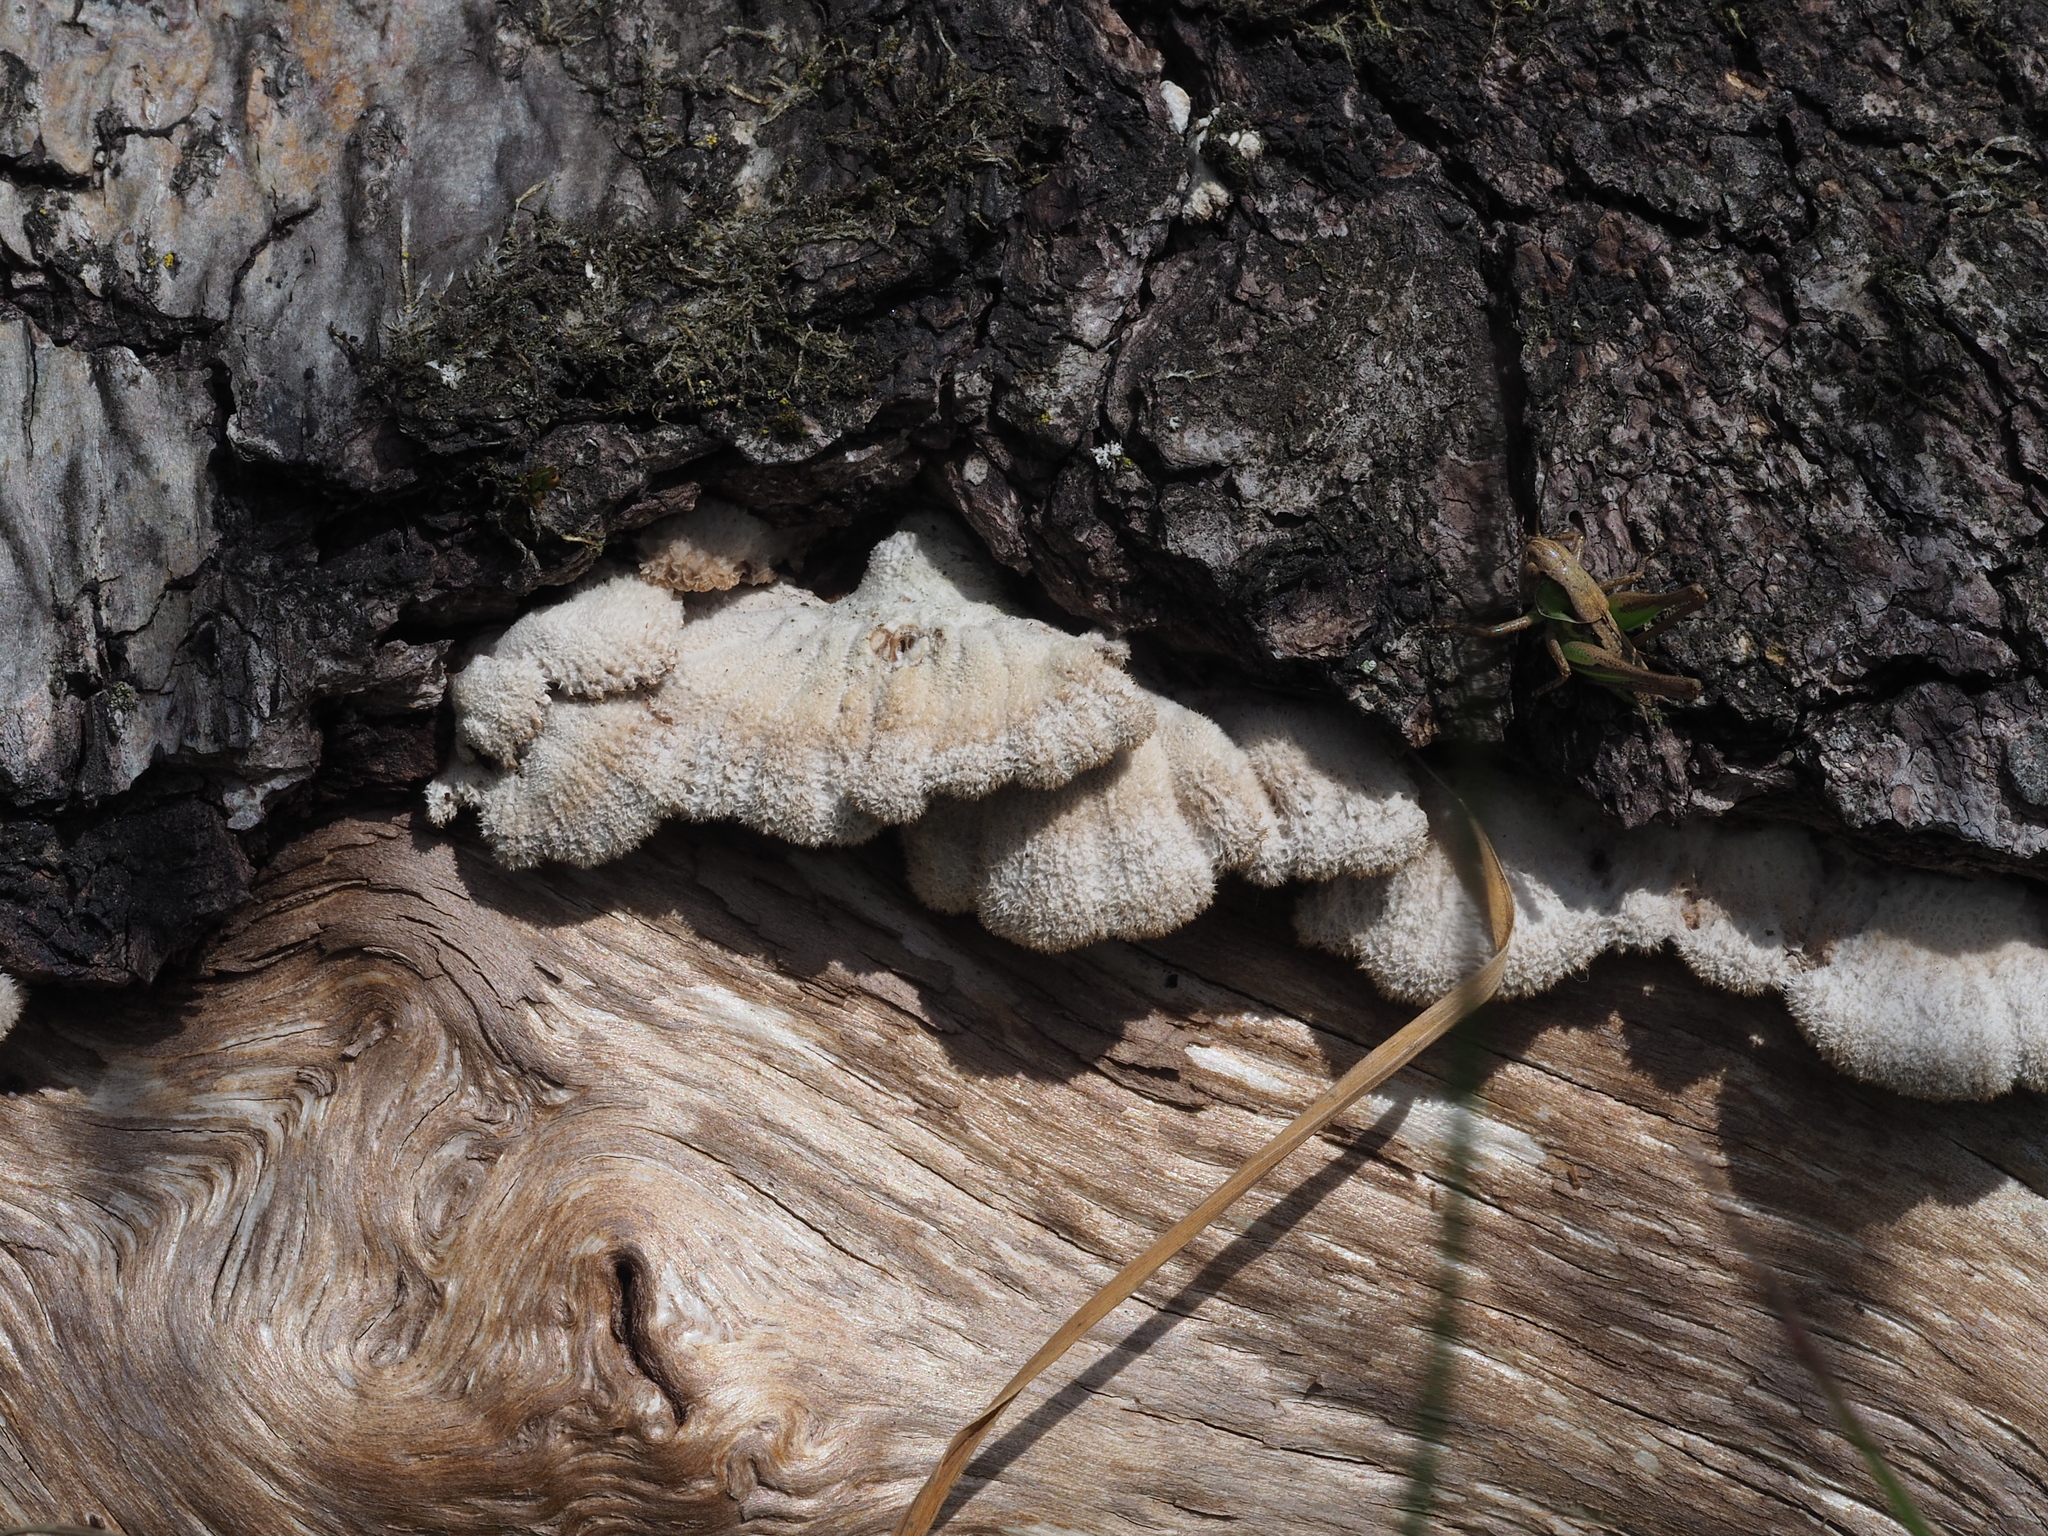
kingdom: Fungi
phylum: Basidiomycota
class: Agaricomycetes
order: Agaricales
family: Schizophyllaceae
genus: Schizophyllum
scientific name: Schizophyllum commune
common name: Common porecrust
